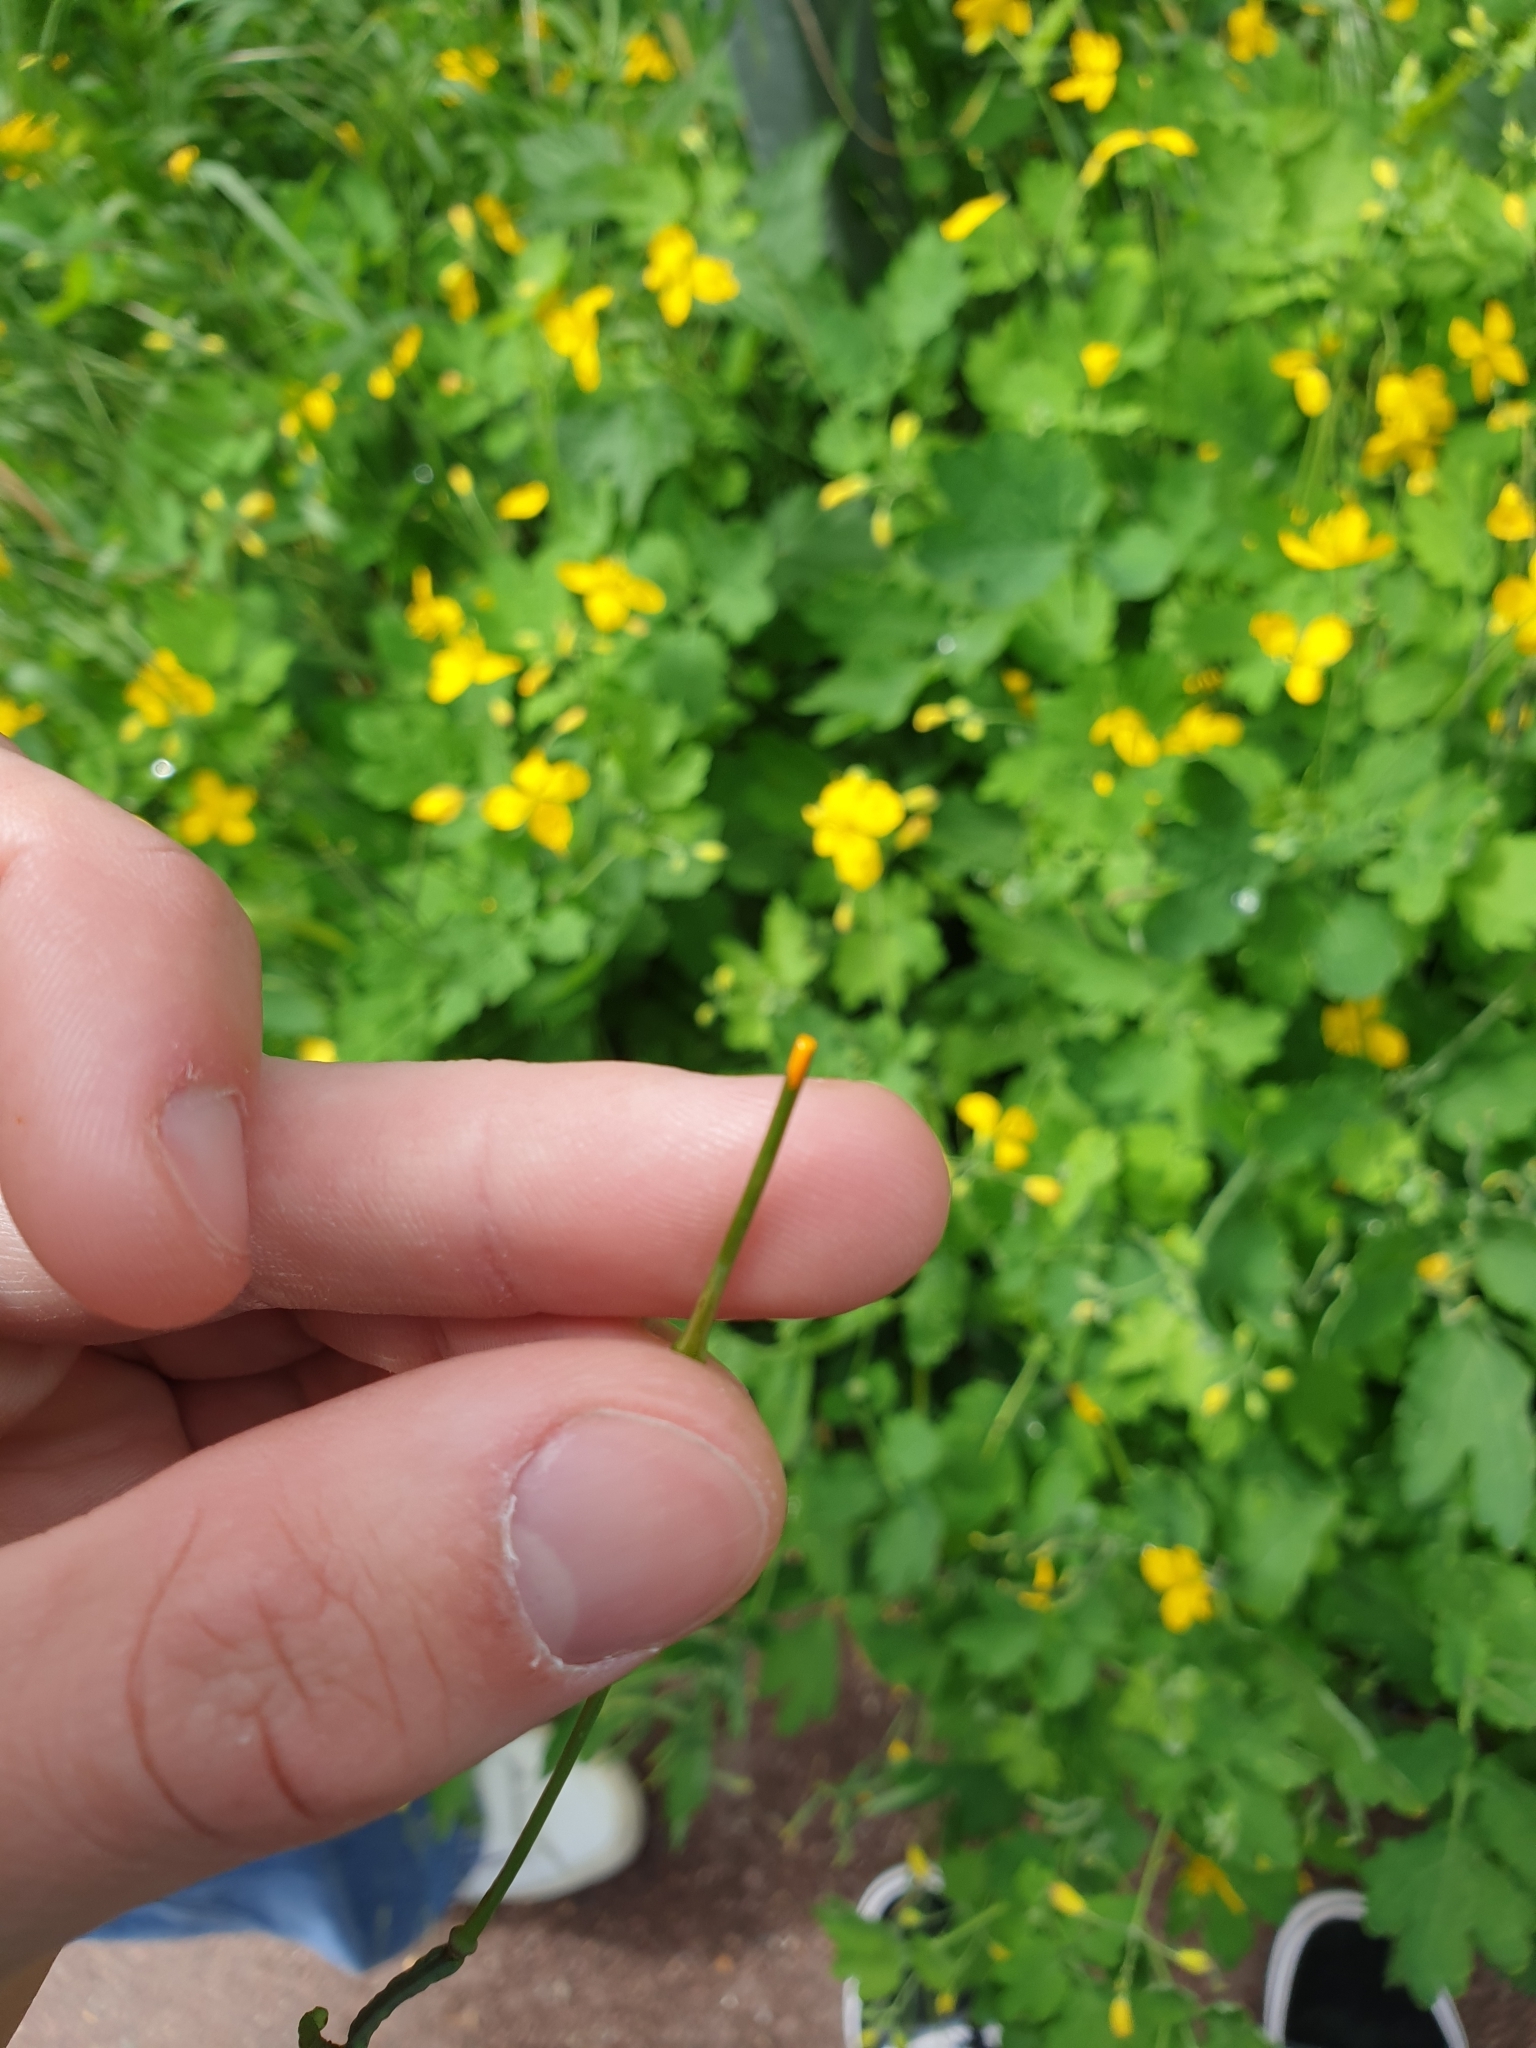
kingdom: Plantae
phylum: Tracheophyta
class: Magnoliopsida
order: Ranunculales
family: Papaveraceae
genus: Chelidonium
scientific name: Chelidonium majus
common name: Greater celandine
